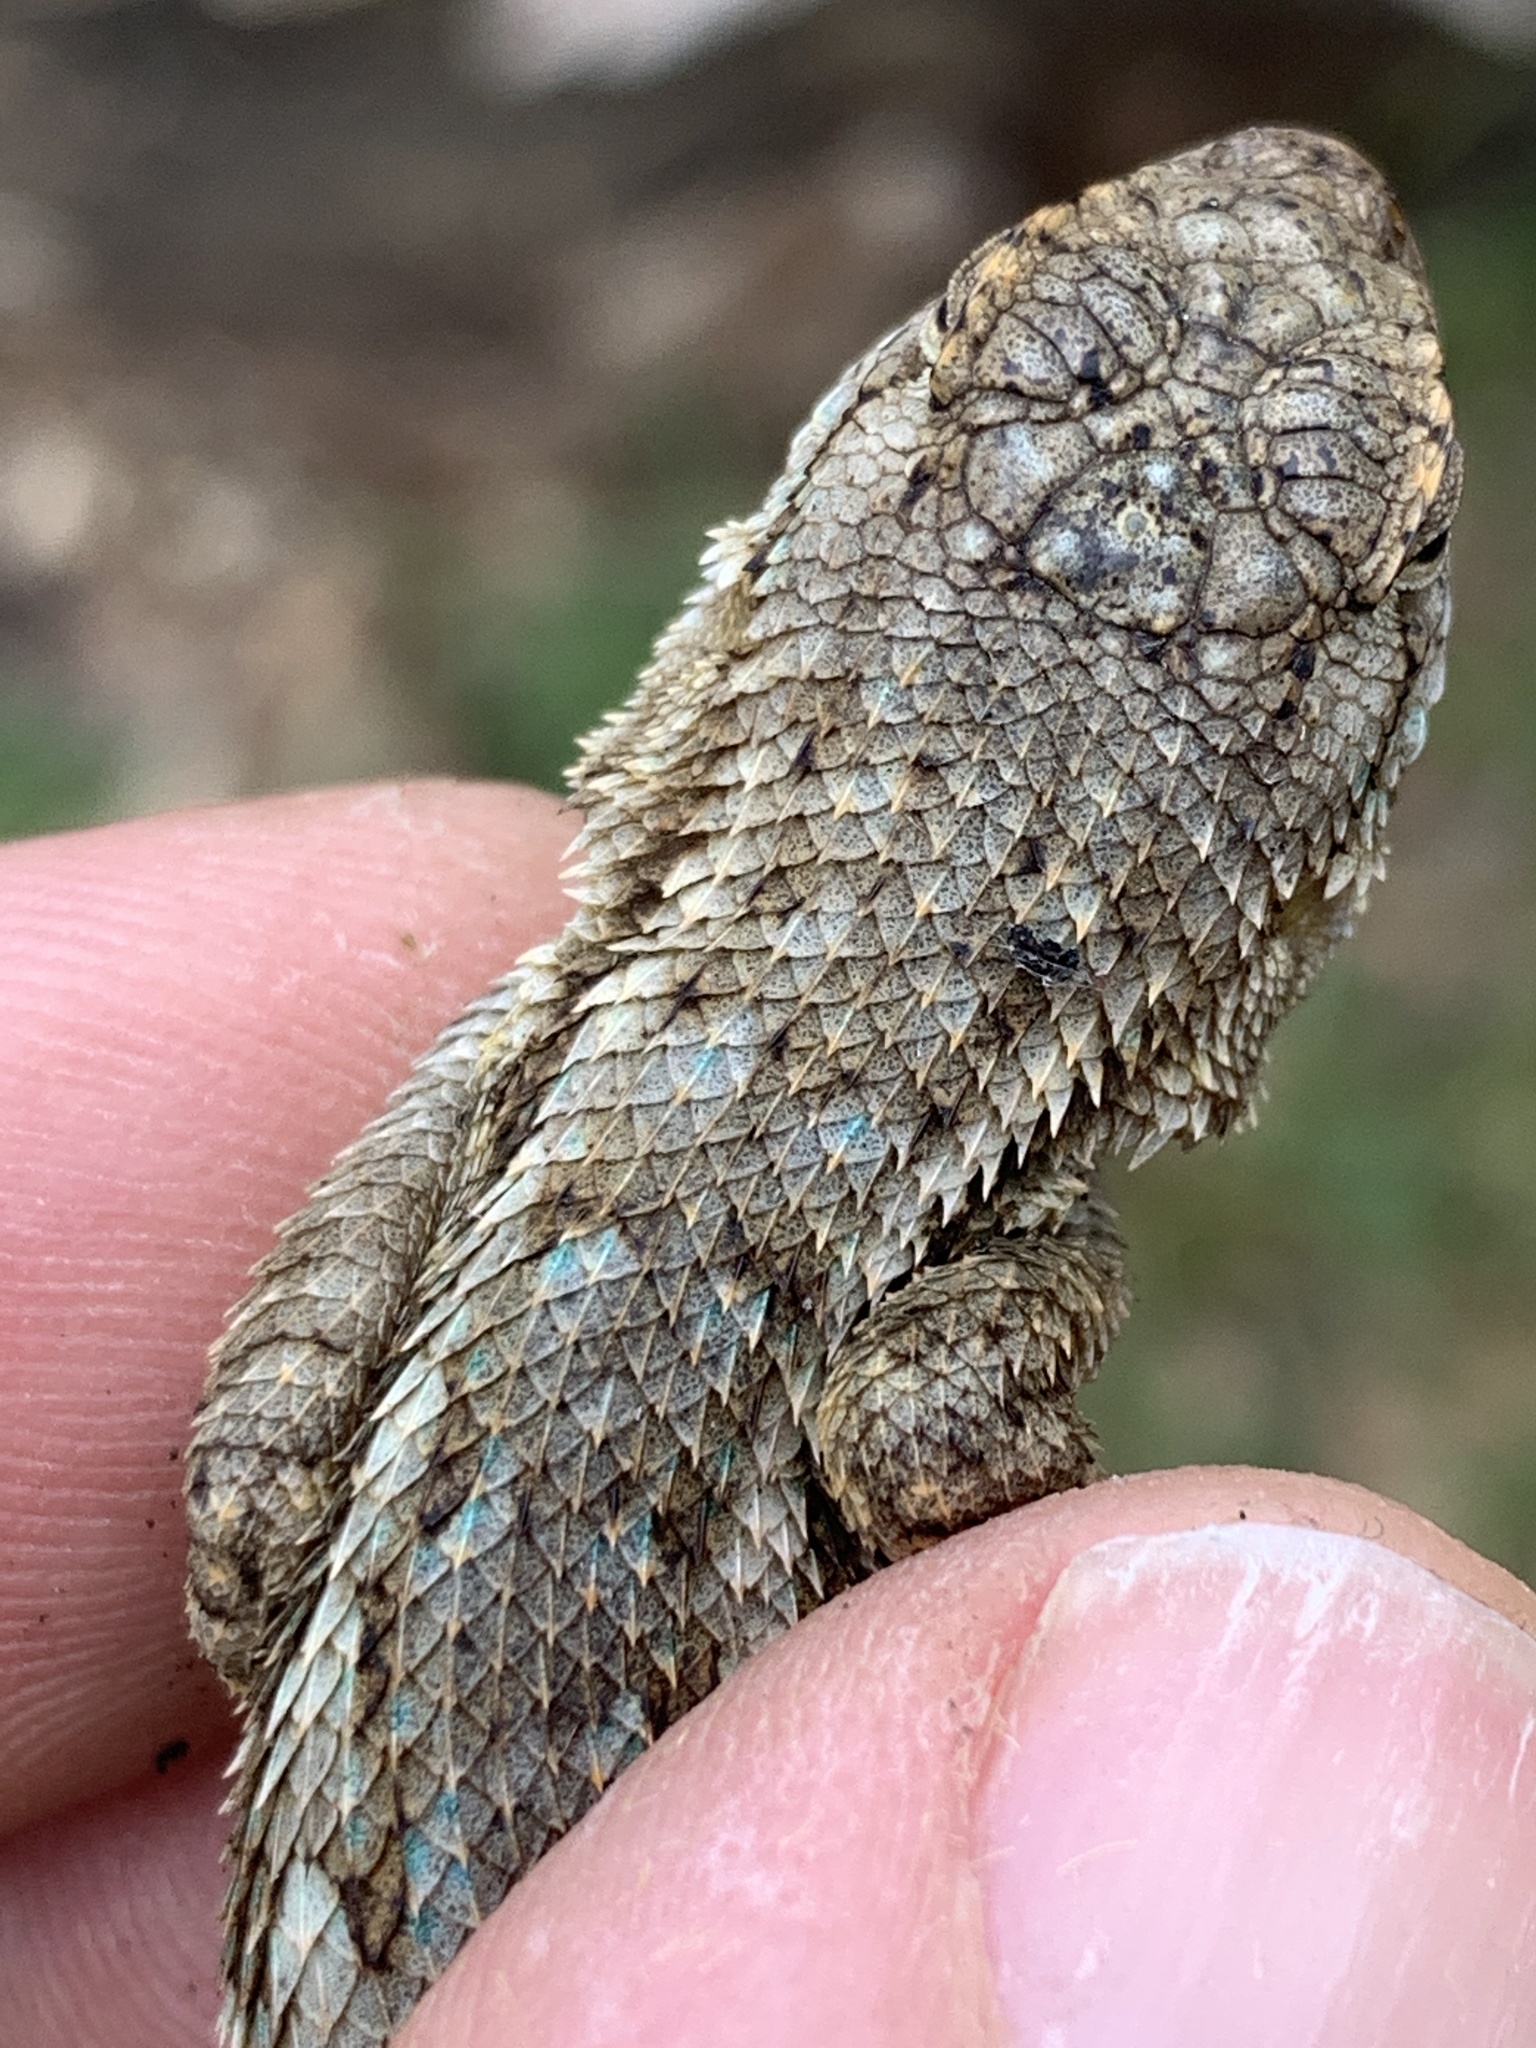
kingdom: Animalia
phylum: Chordata
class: Squamata
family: Phrynosomatidae
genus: Sceloporus
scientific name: Sceloporus occidentalis
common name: Western fence lizard
